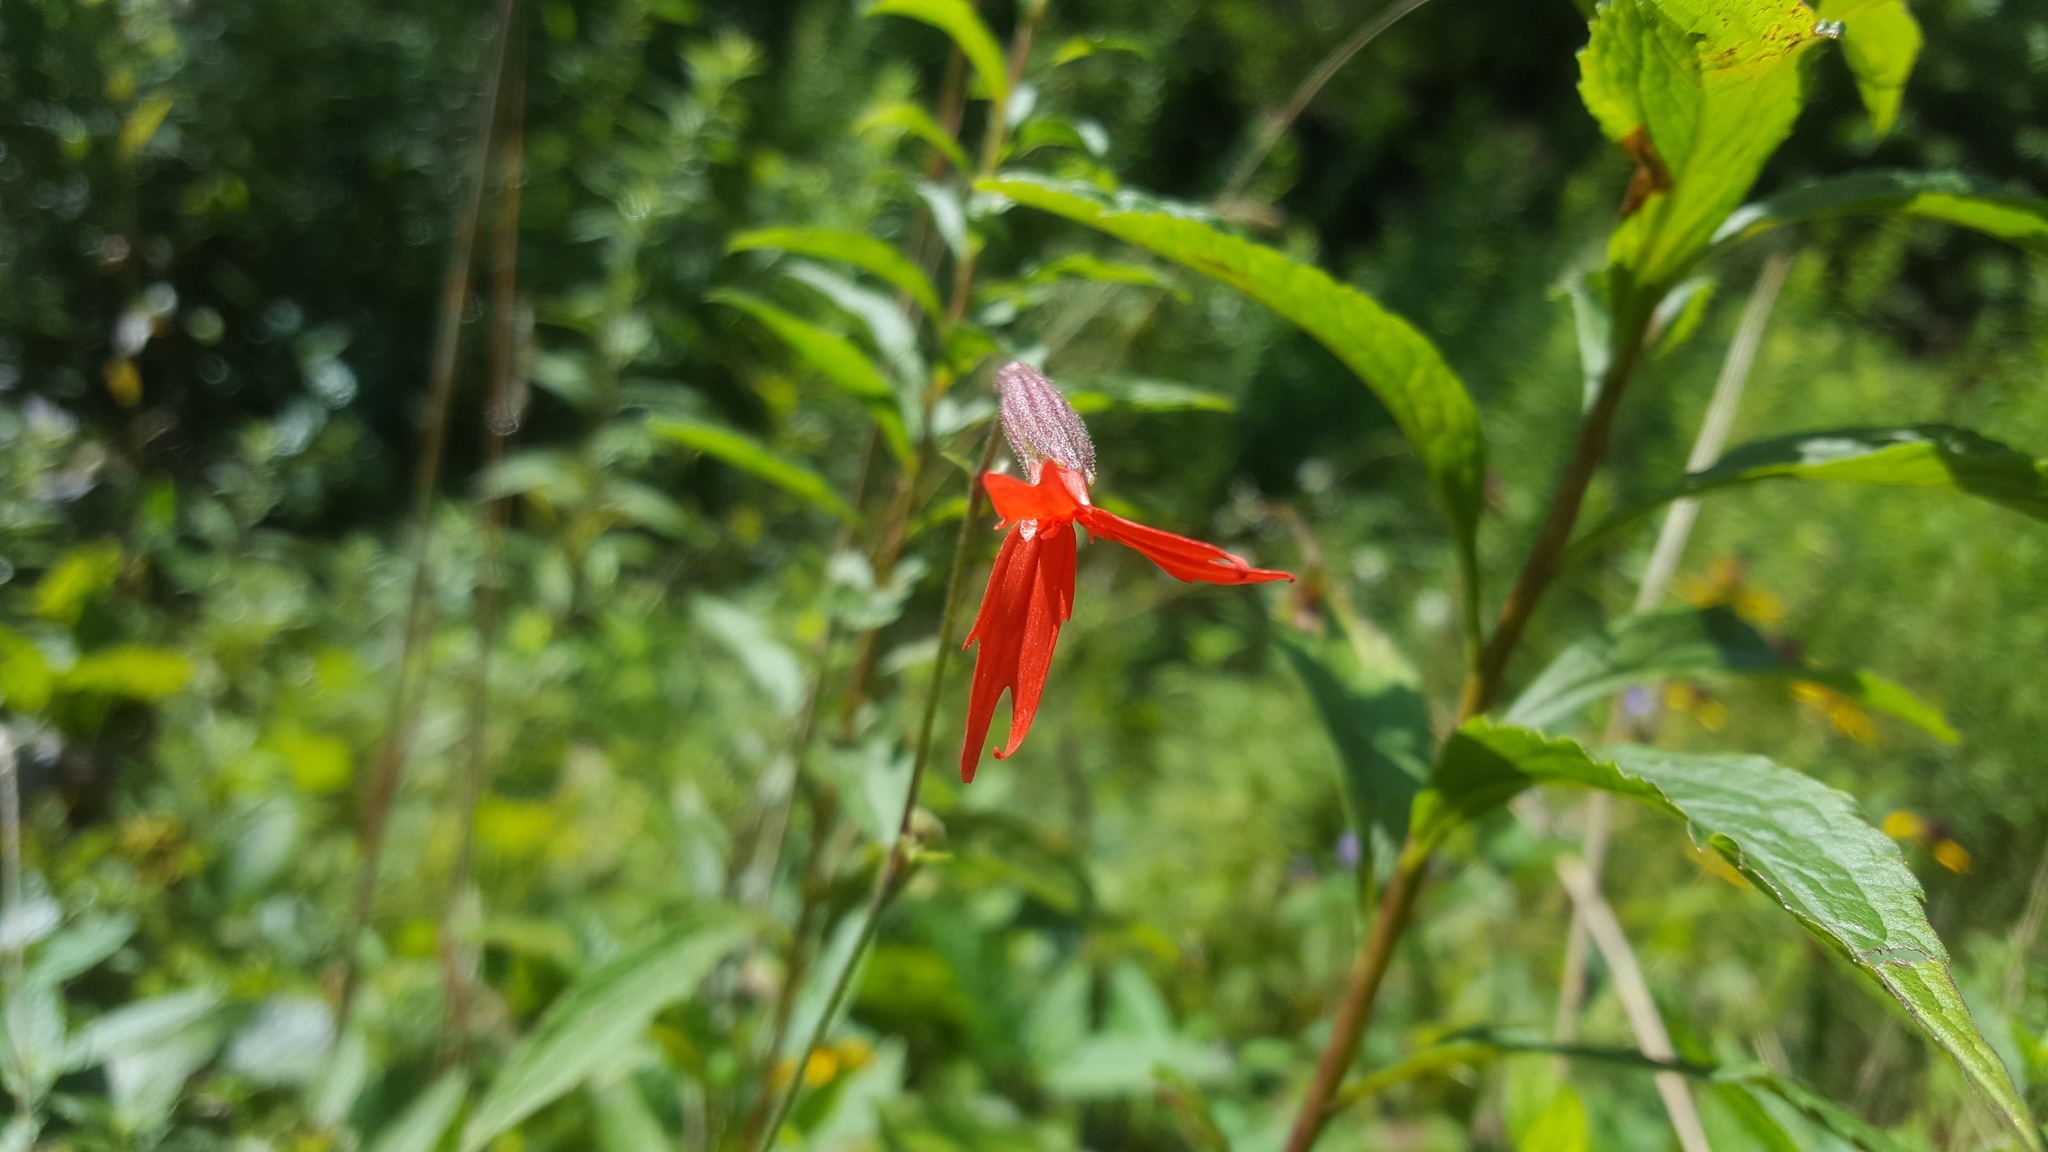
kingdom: Plantae
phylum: Tracheophyta
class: Magnoliopsida
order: Caryophyllales
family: Caryophyllaceae
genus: Silene
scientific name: Silene virginica
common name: Fire-pink
